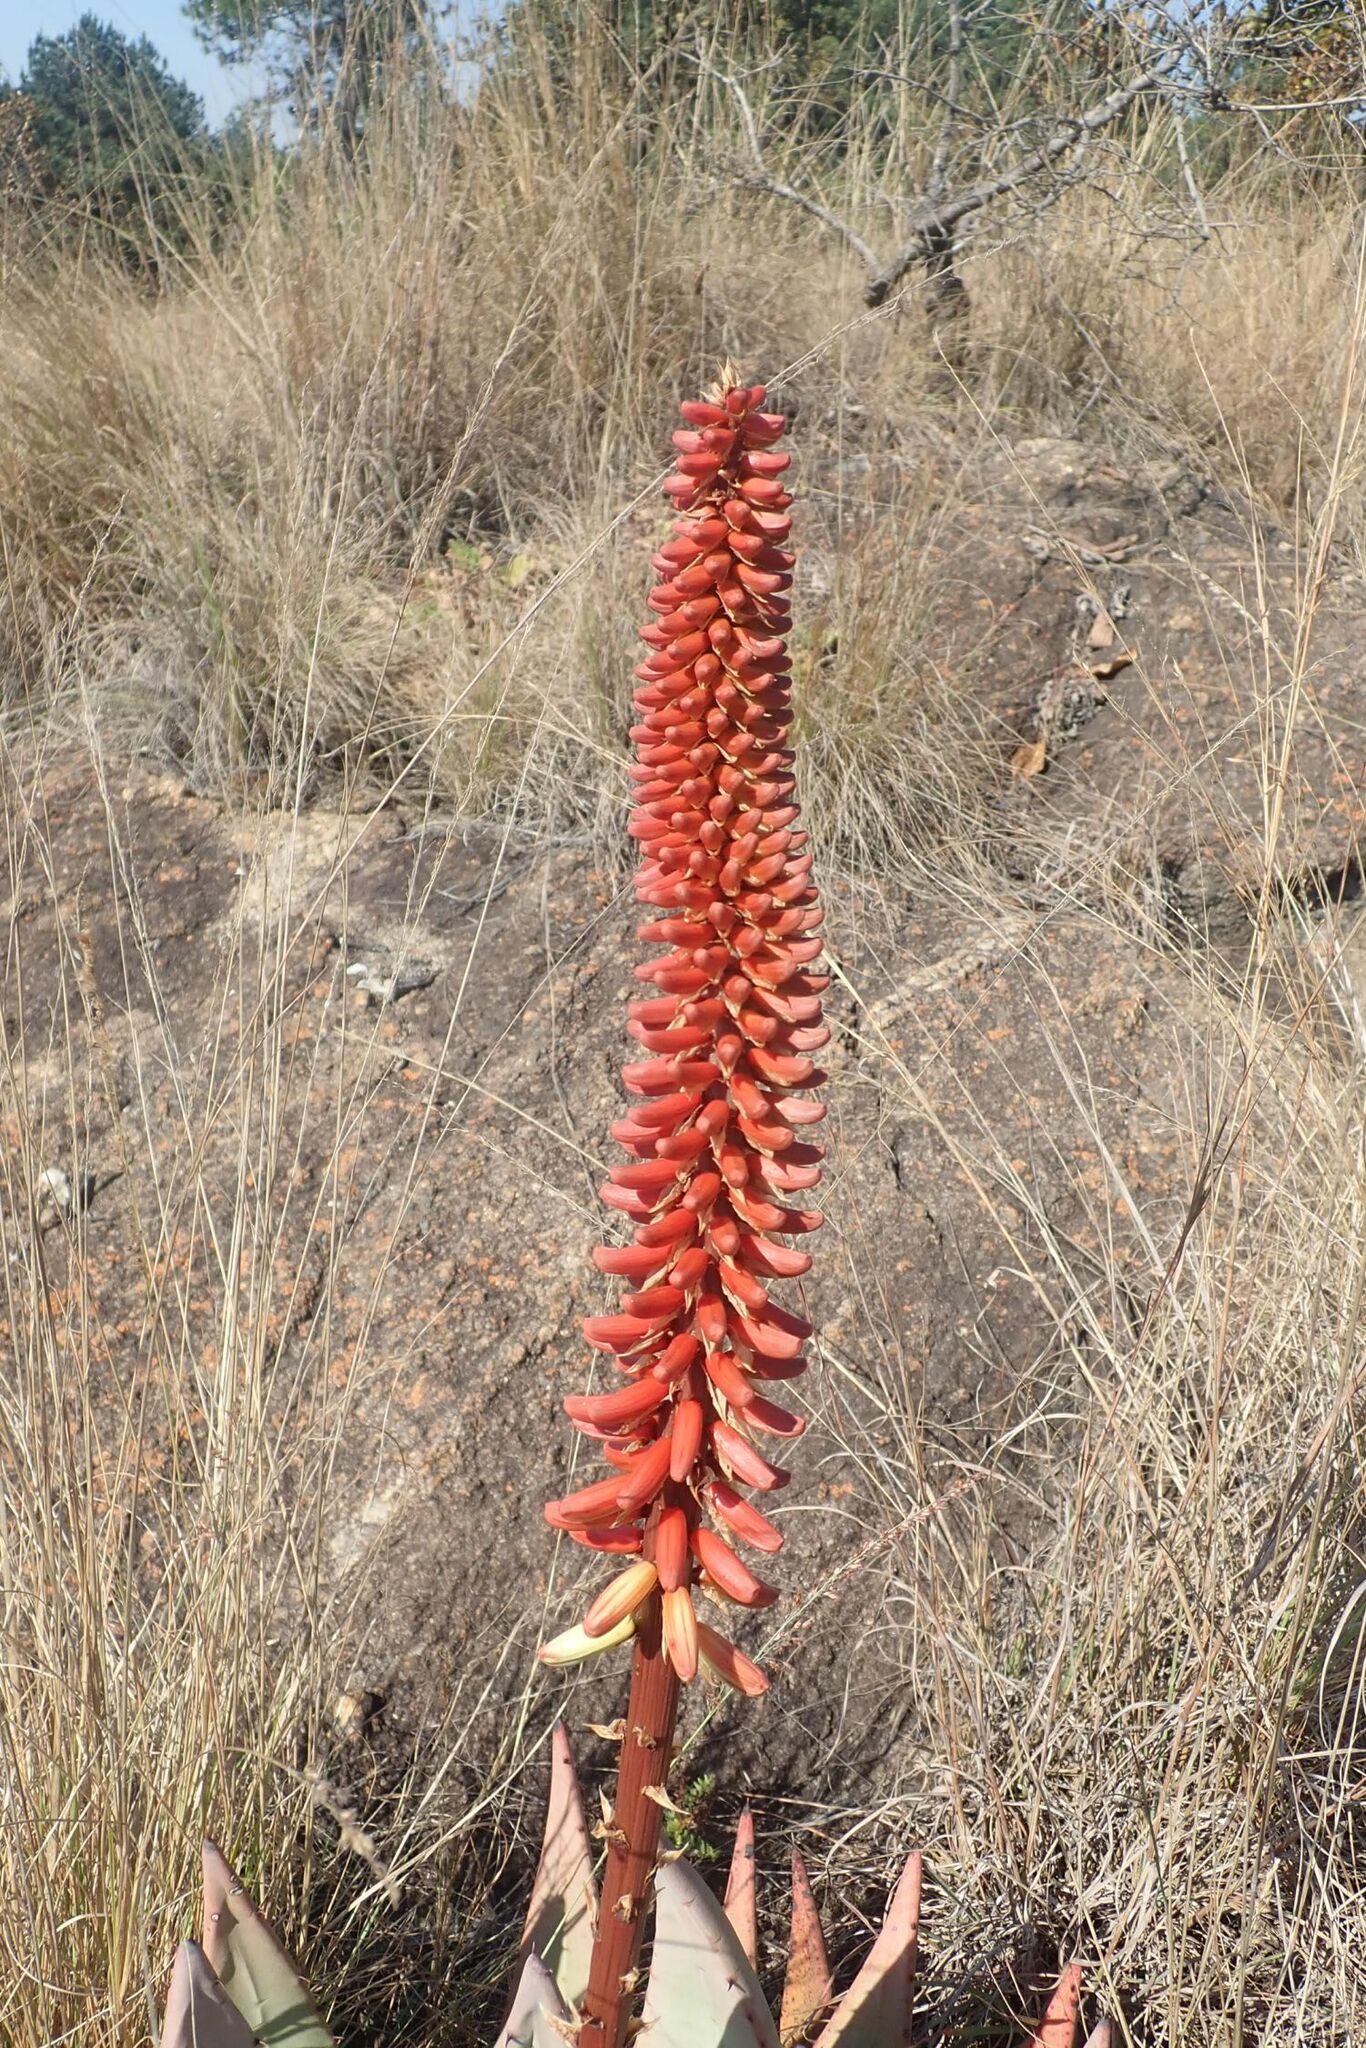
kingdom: Plantae
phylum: Tracheophyta
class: Liliopsida
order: Asparagales
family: Asphodelaceae
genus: Aloe
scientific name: Aloe petricola
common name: Rock aloe
